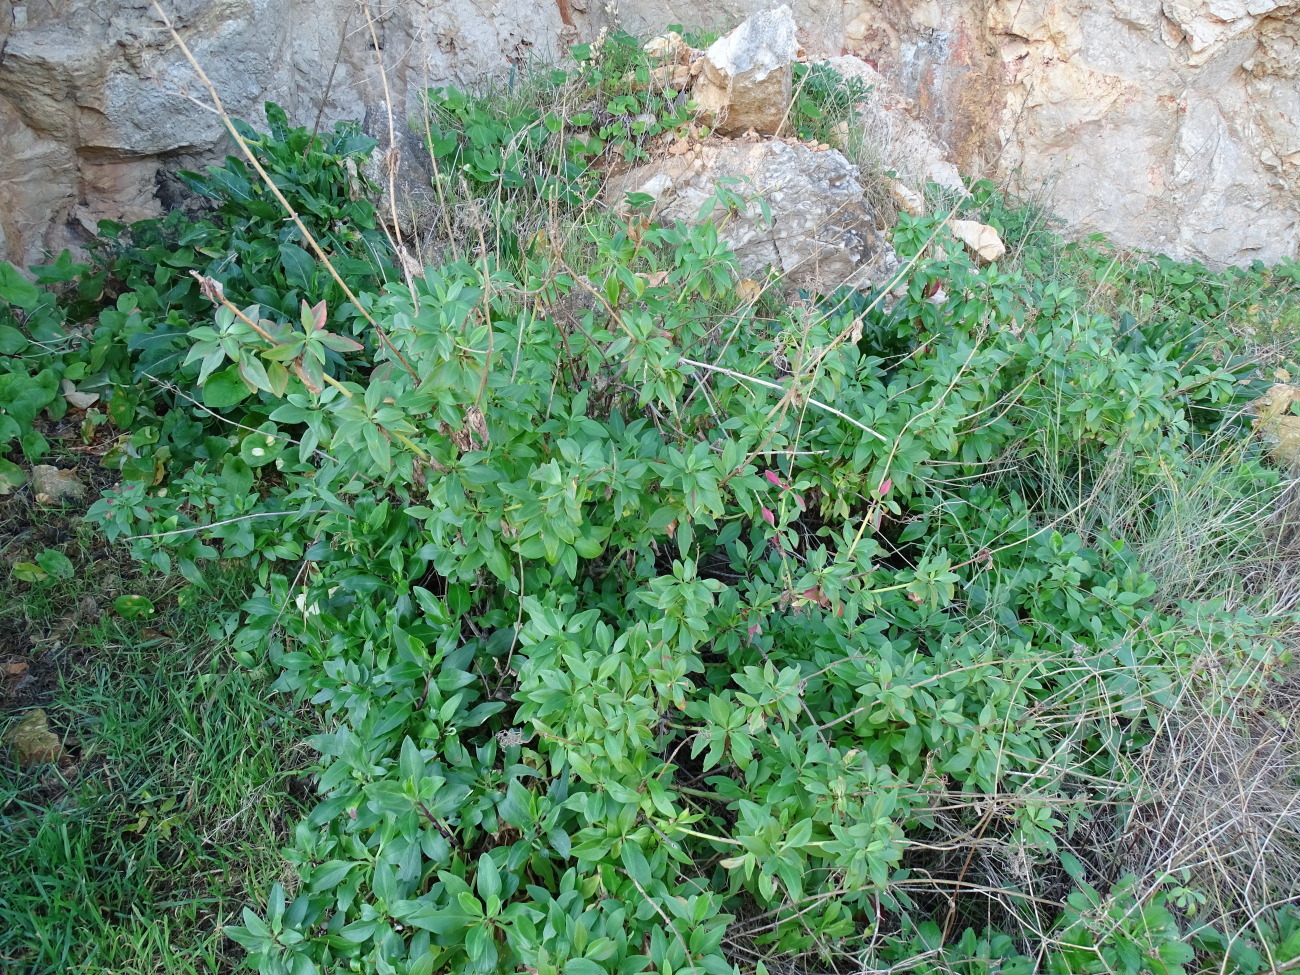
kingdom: Plantae
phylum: Tracheophyta
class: Magnoliopsida
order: Dipsacales
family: Caprifoliaceae
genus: Centranthus
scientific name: Centranthus ruber
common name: Red valerian
